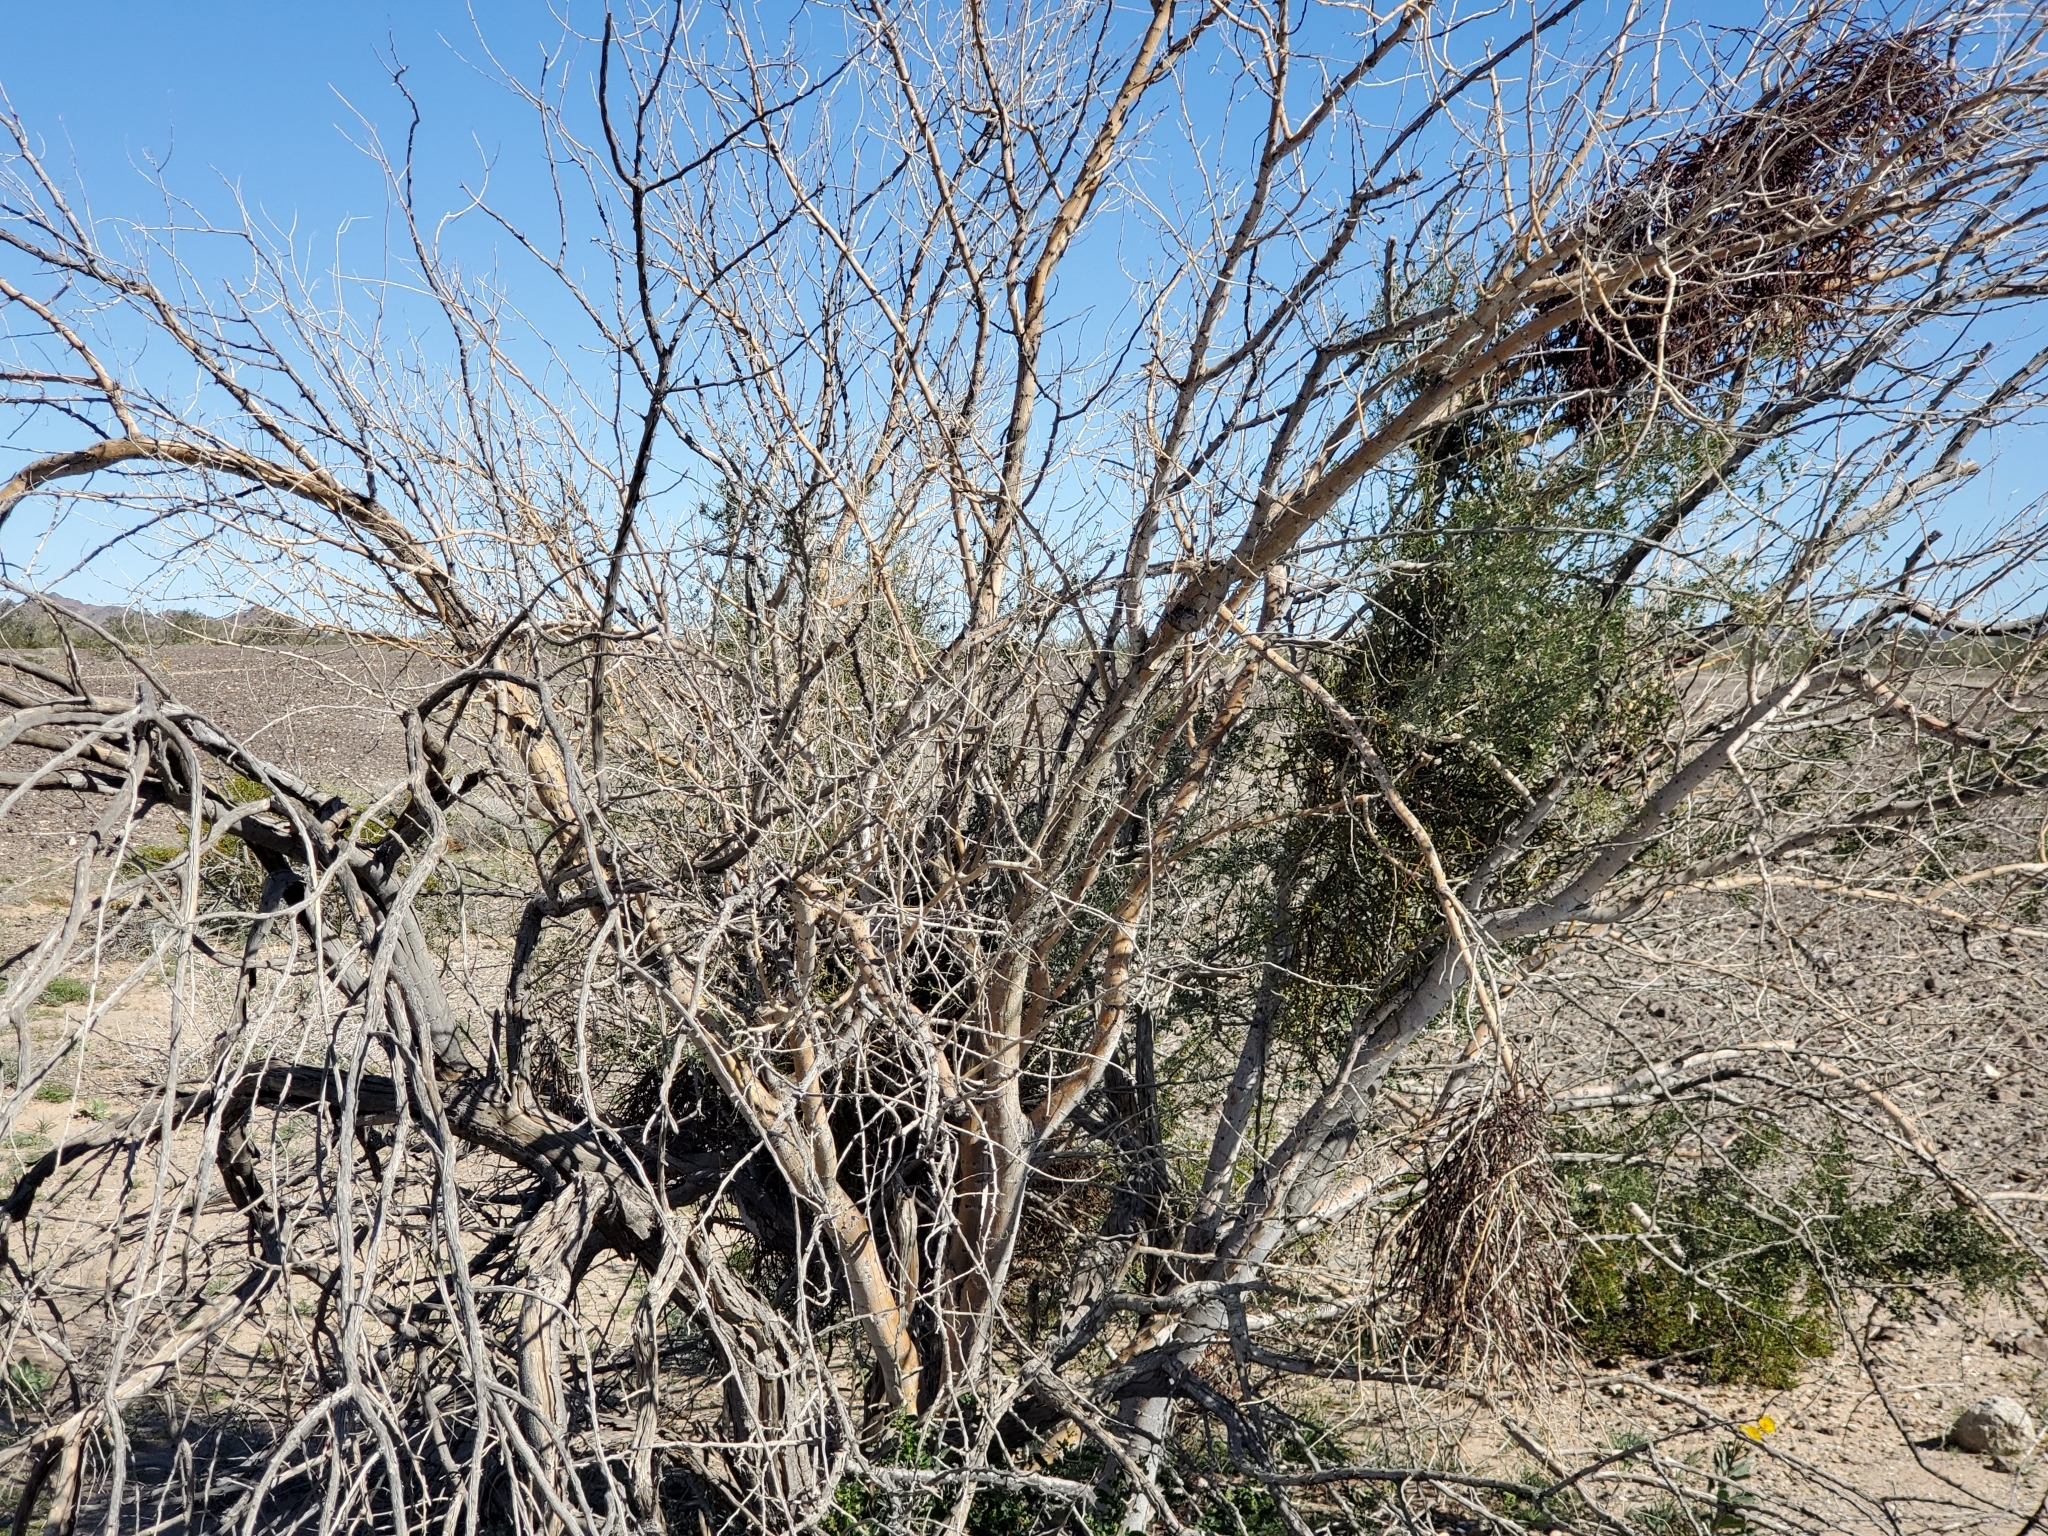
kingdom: Plantae
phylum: Tracheophyta
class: Magnoliopsida
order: Fabales
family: Fabaceae
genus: Olneya
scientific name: Olneya tesota
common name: Desert ironwood
